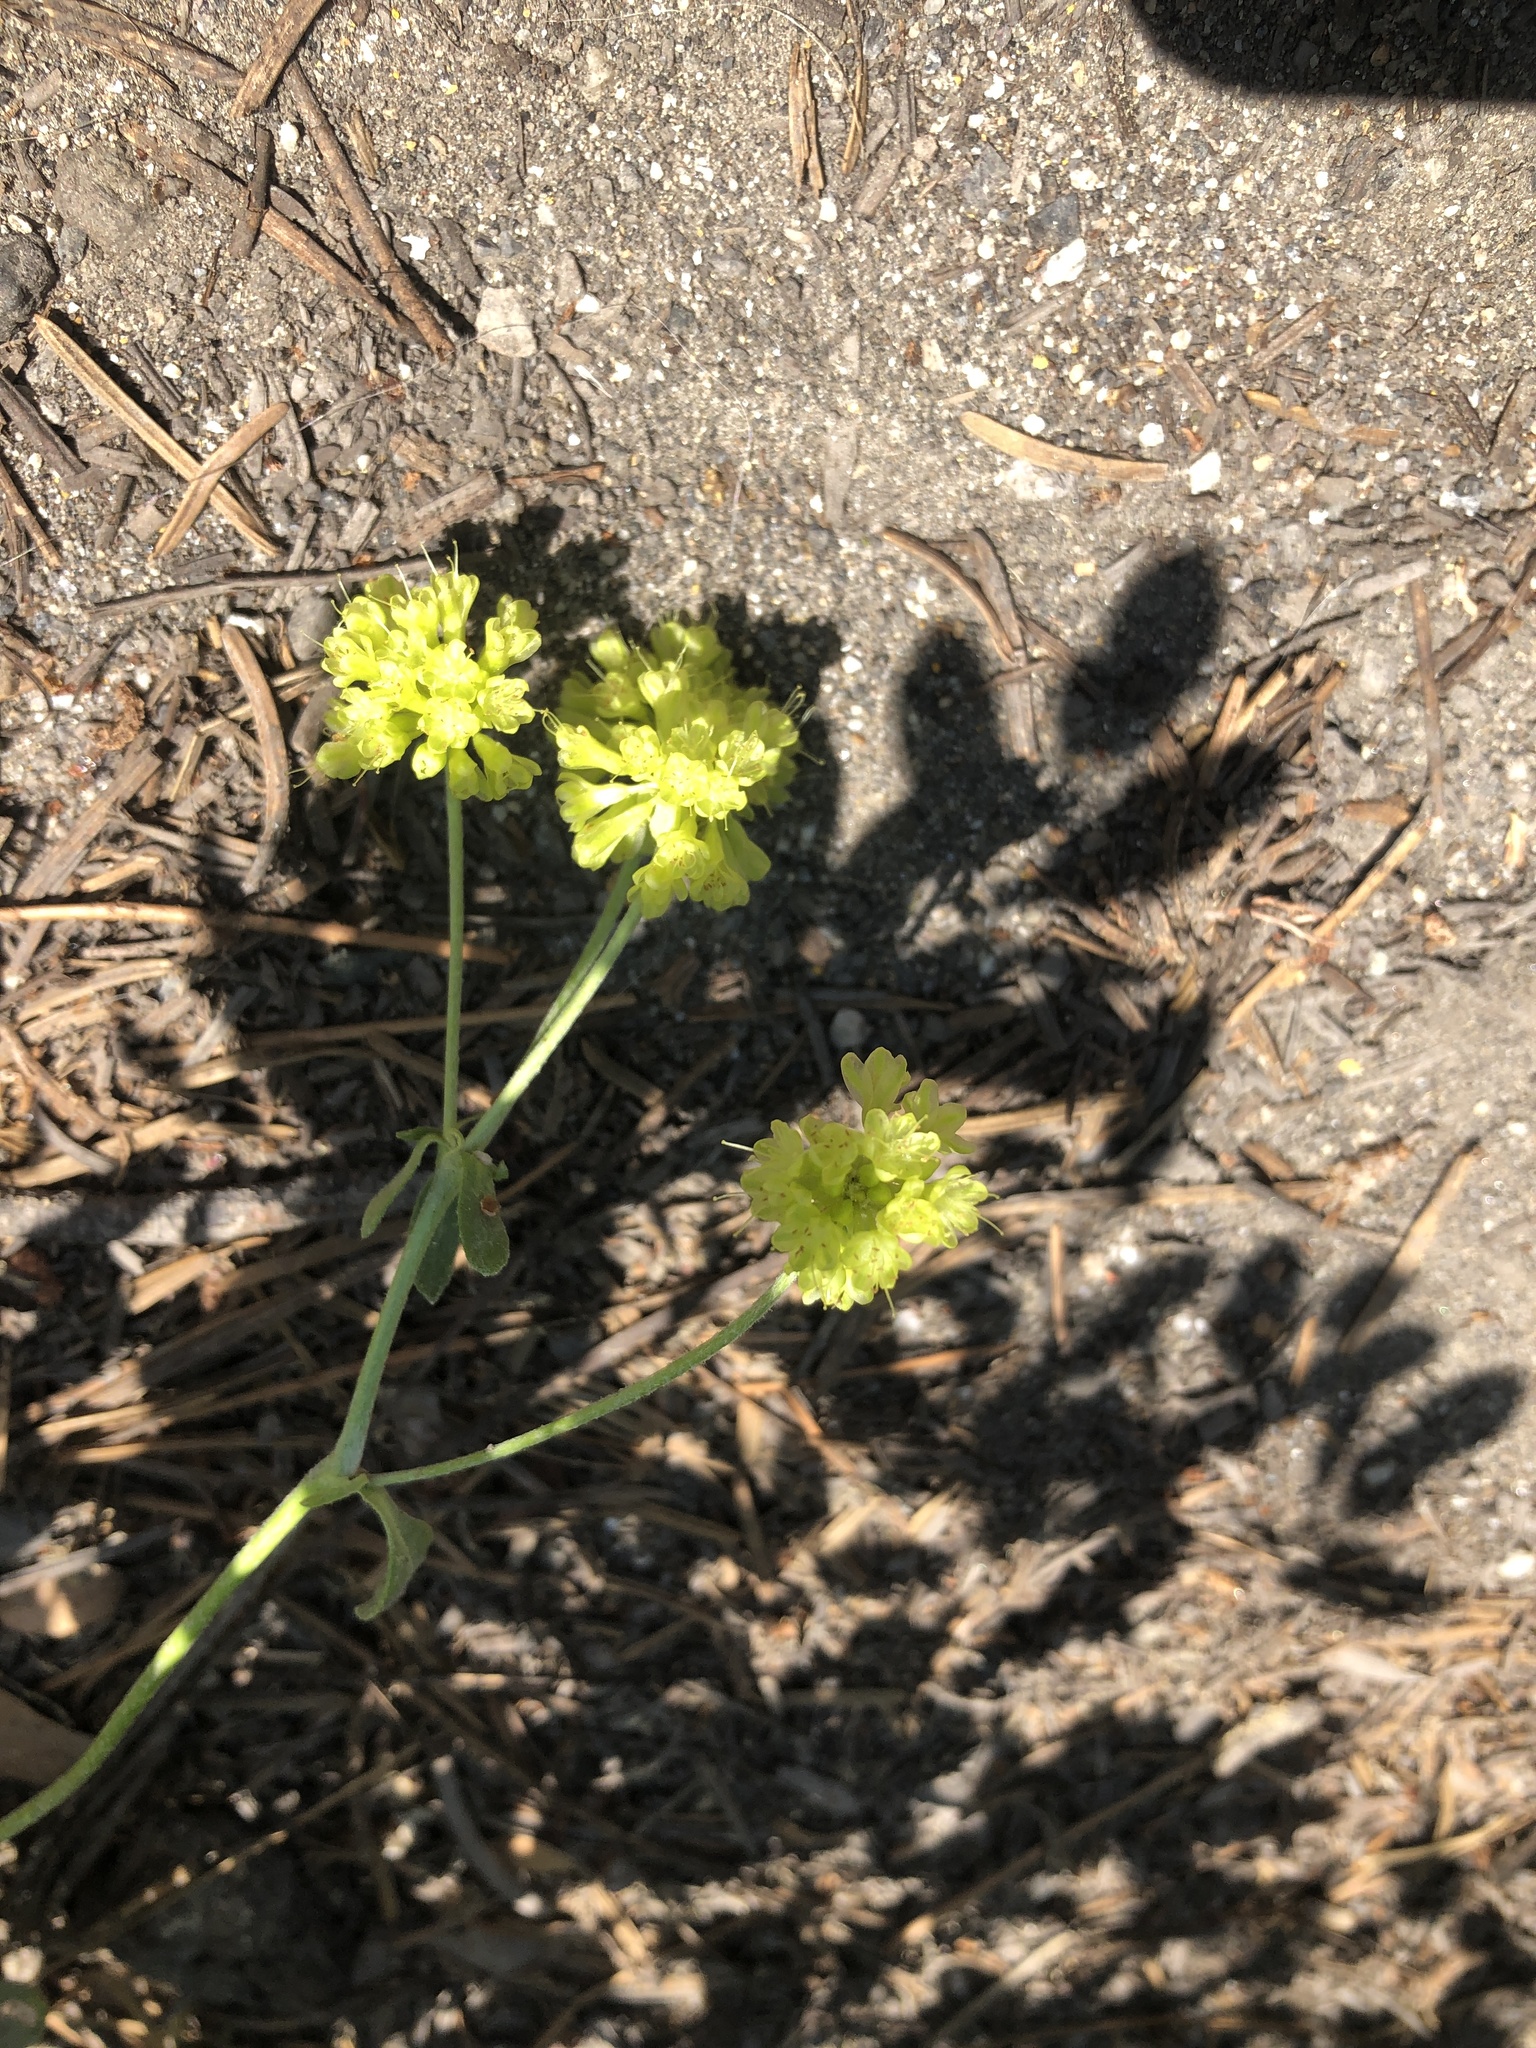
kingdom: Plantae
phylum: Tracheophyta
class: Magnoliopsida
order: Caryophyllales
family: Polygonaceae
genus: Eriogonum
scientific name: Eriogonum umbellatum
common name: Sulfur-buckwheat
